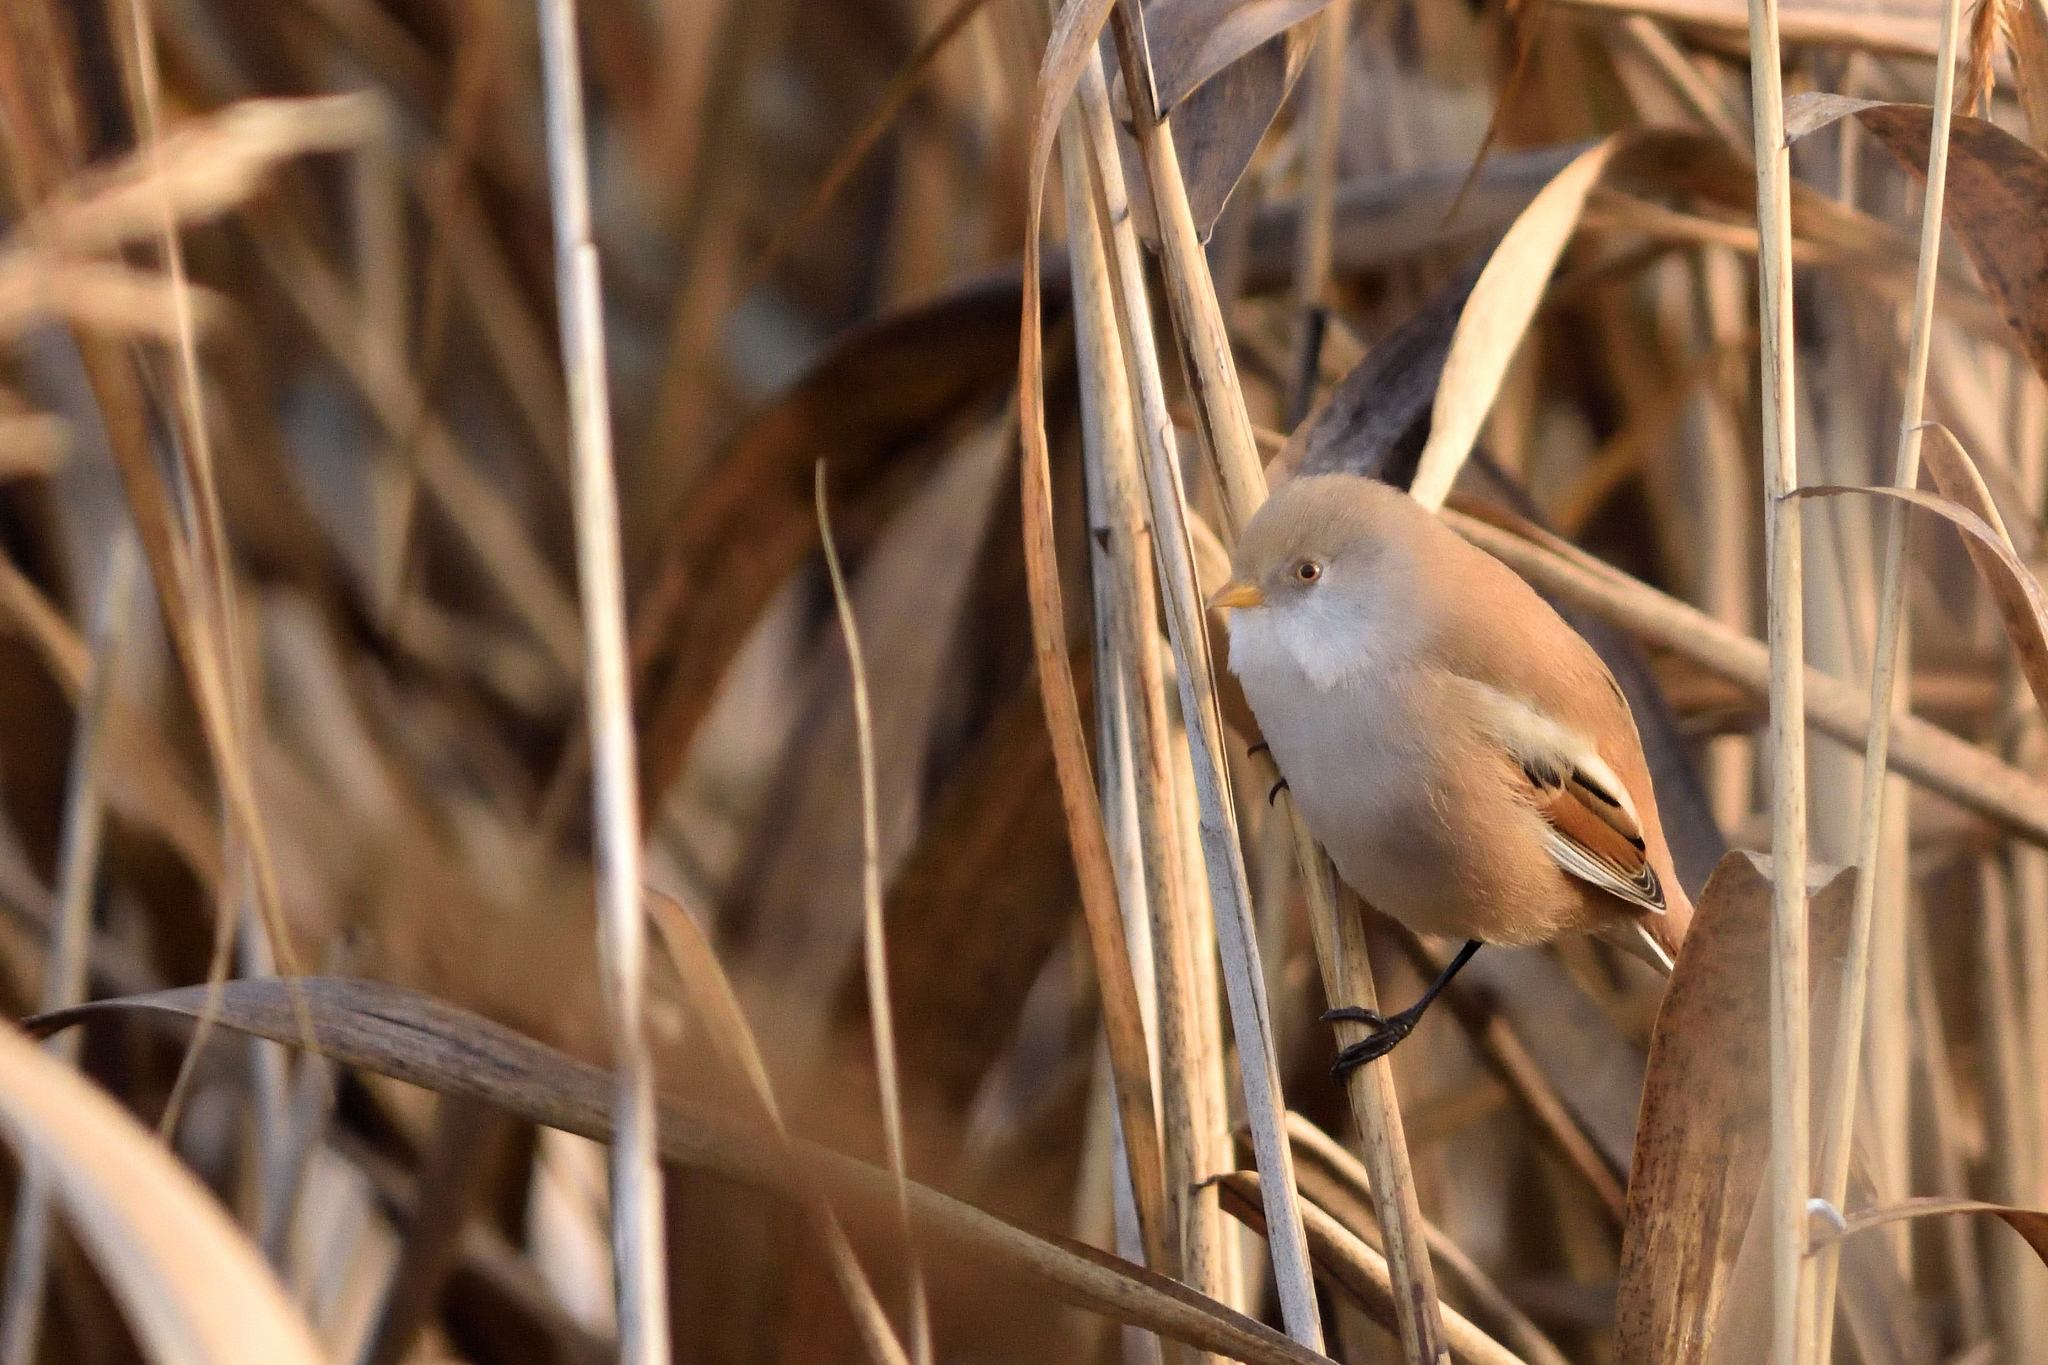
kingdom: Animalia
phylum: Chordata
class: Aves
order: Passeriformes
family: Panuridae
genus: Panurus
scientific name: Panurus biarmicus
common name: Bearded reedling
